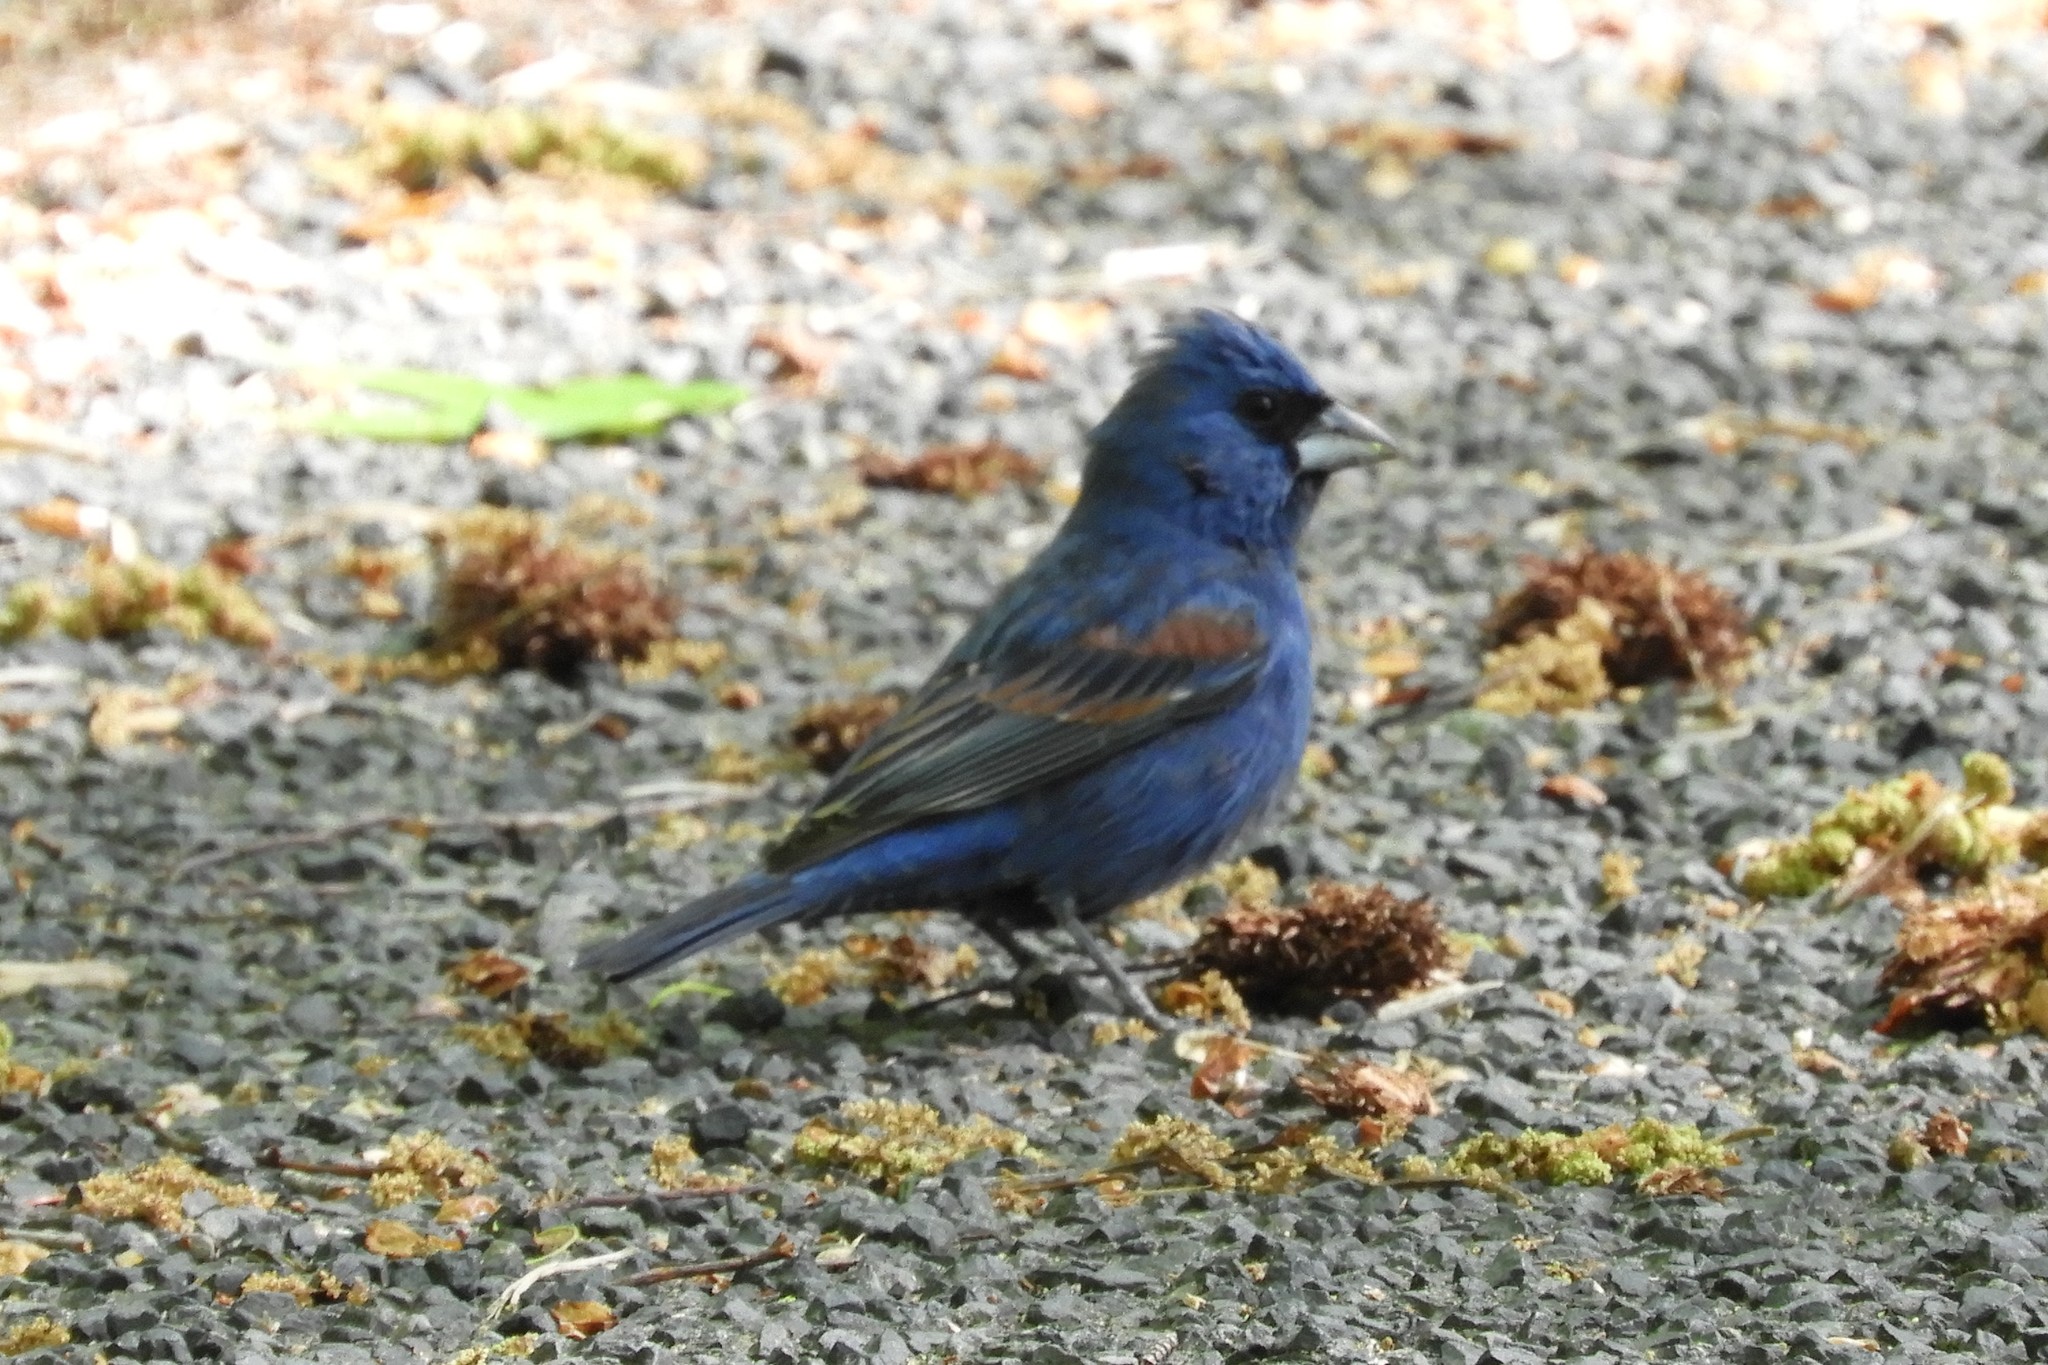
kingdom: Animalia
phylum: Chordata
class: Aves
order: Passeriformes
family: Cardinalidae
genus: Passerina
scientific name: Passerina caerulea
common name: Blue grosbeak
